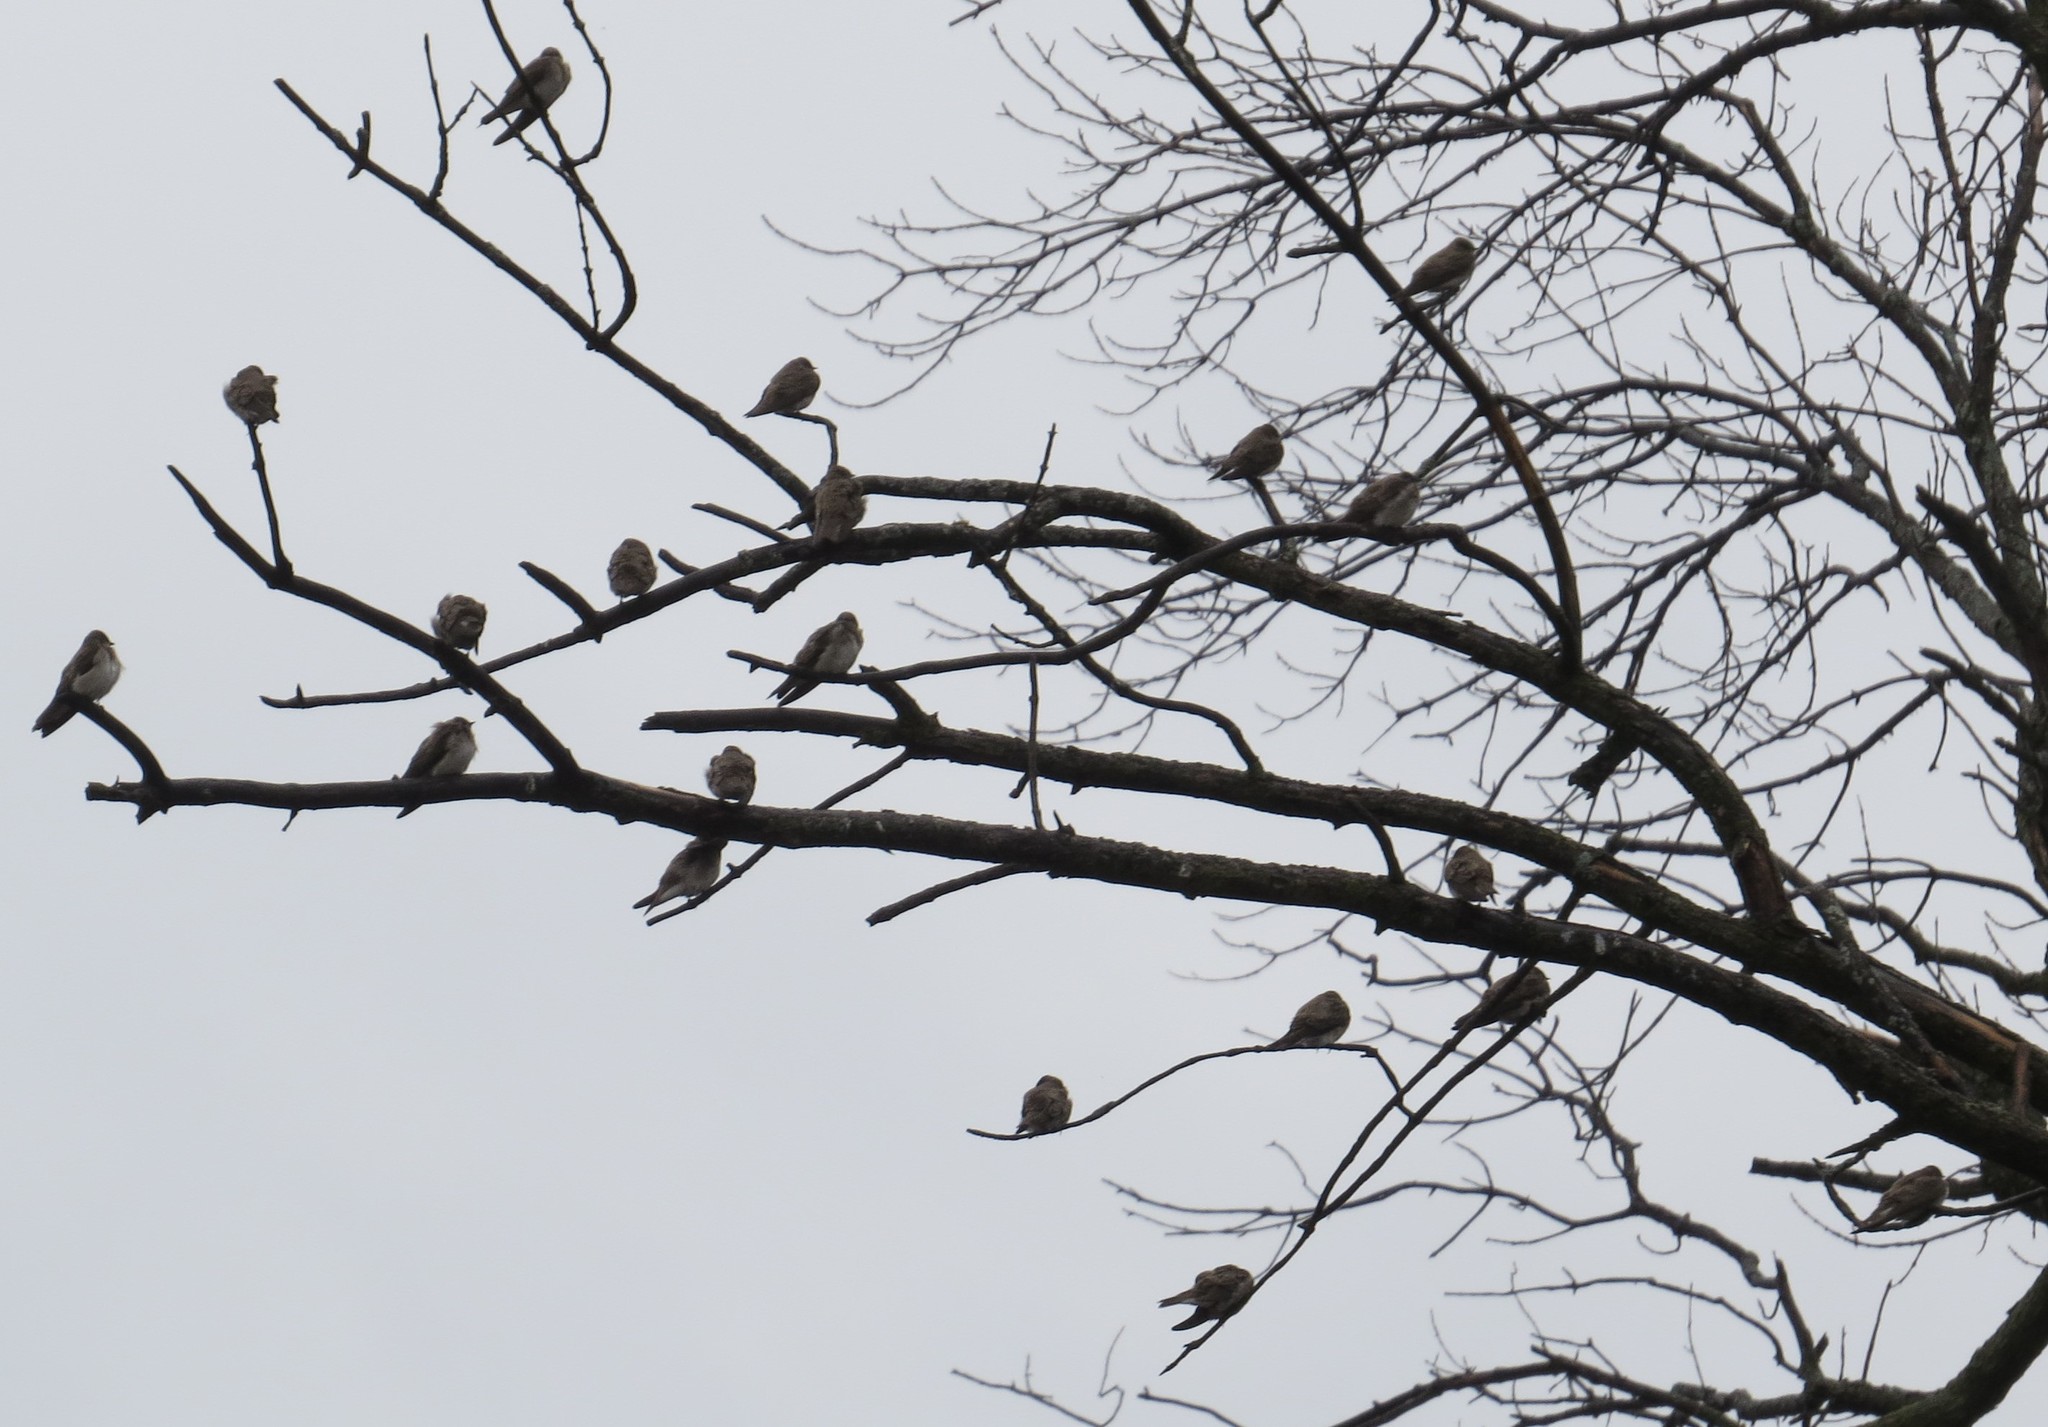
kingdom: Animalia
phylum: Chordata
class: Aves
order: Passeriformes
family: Hirundinidae
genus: Stelgidopteryx
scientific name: Stelgidopteryx serripennis
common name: Northern rough-winged swallow
